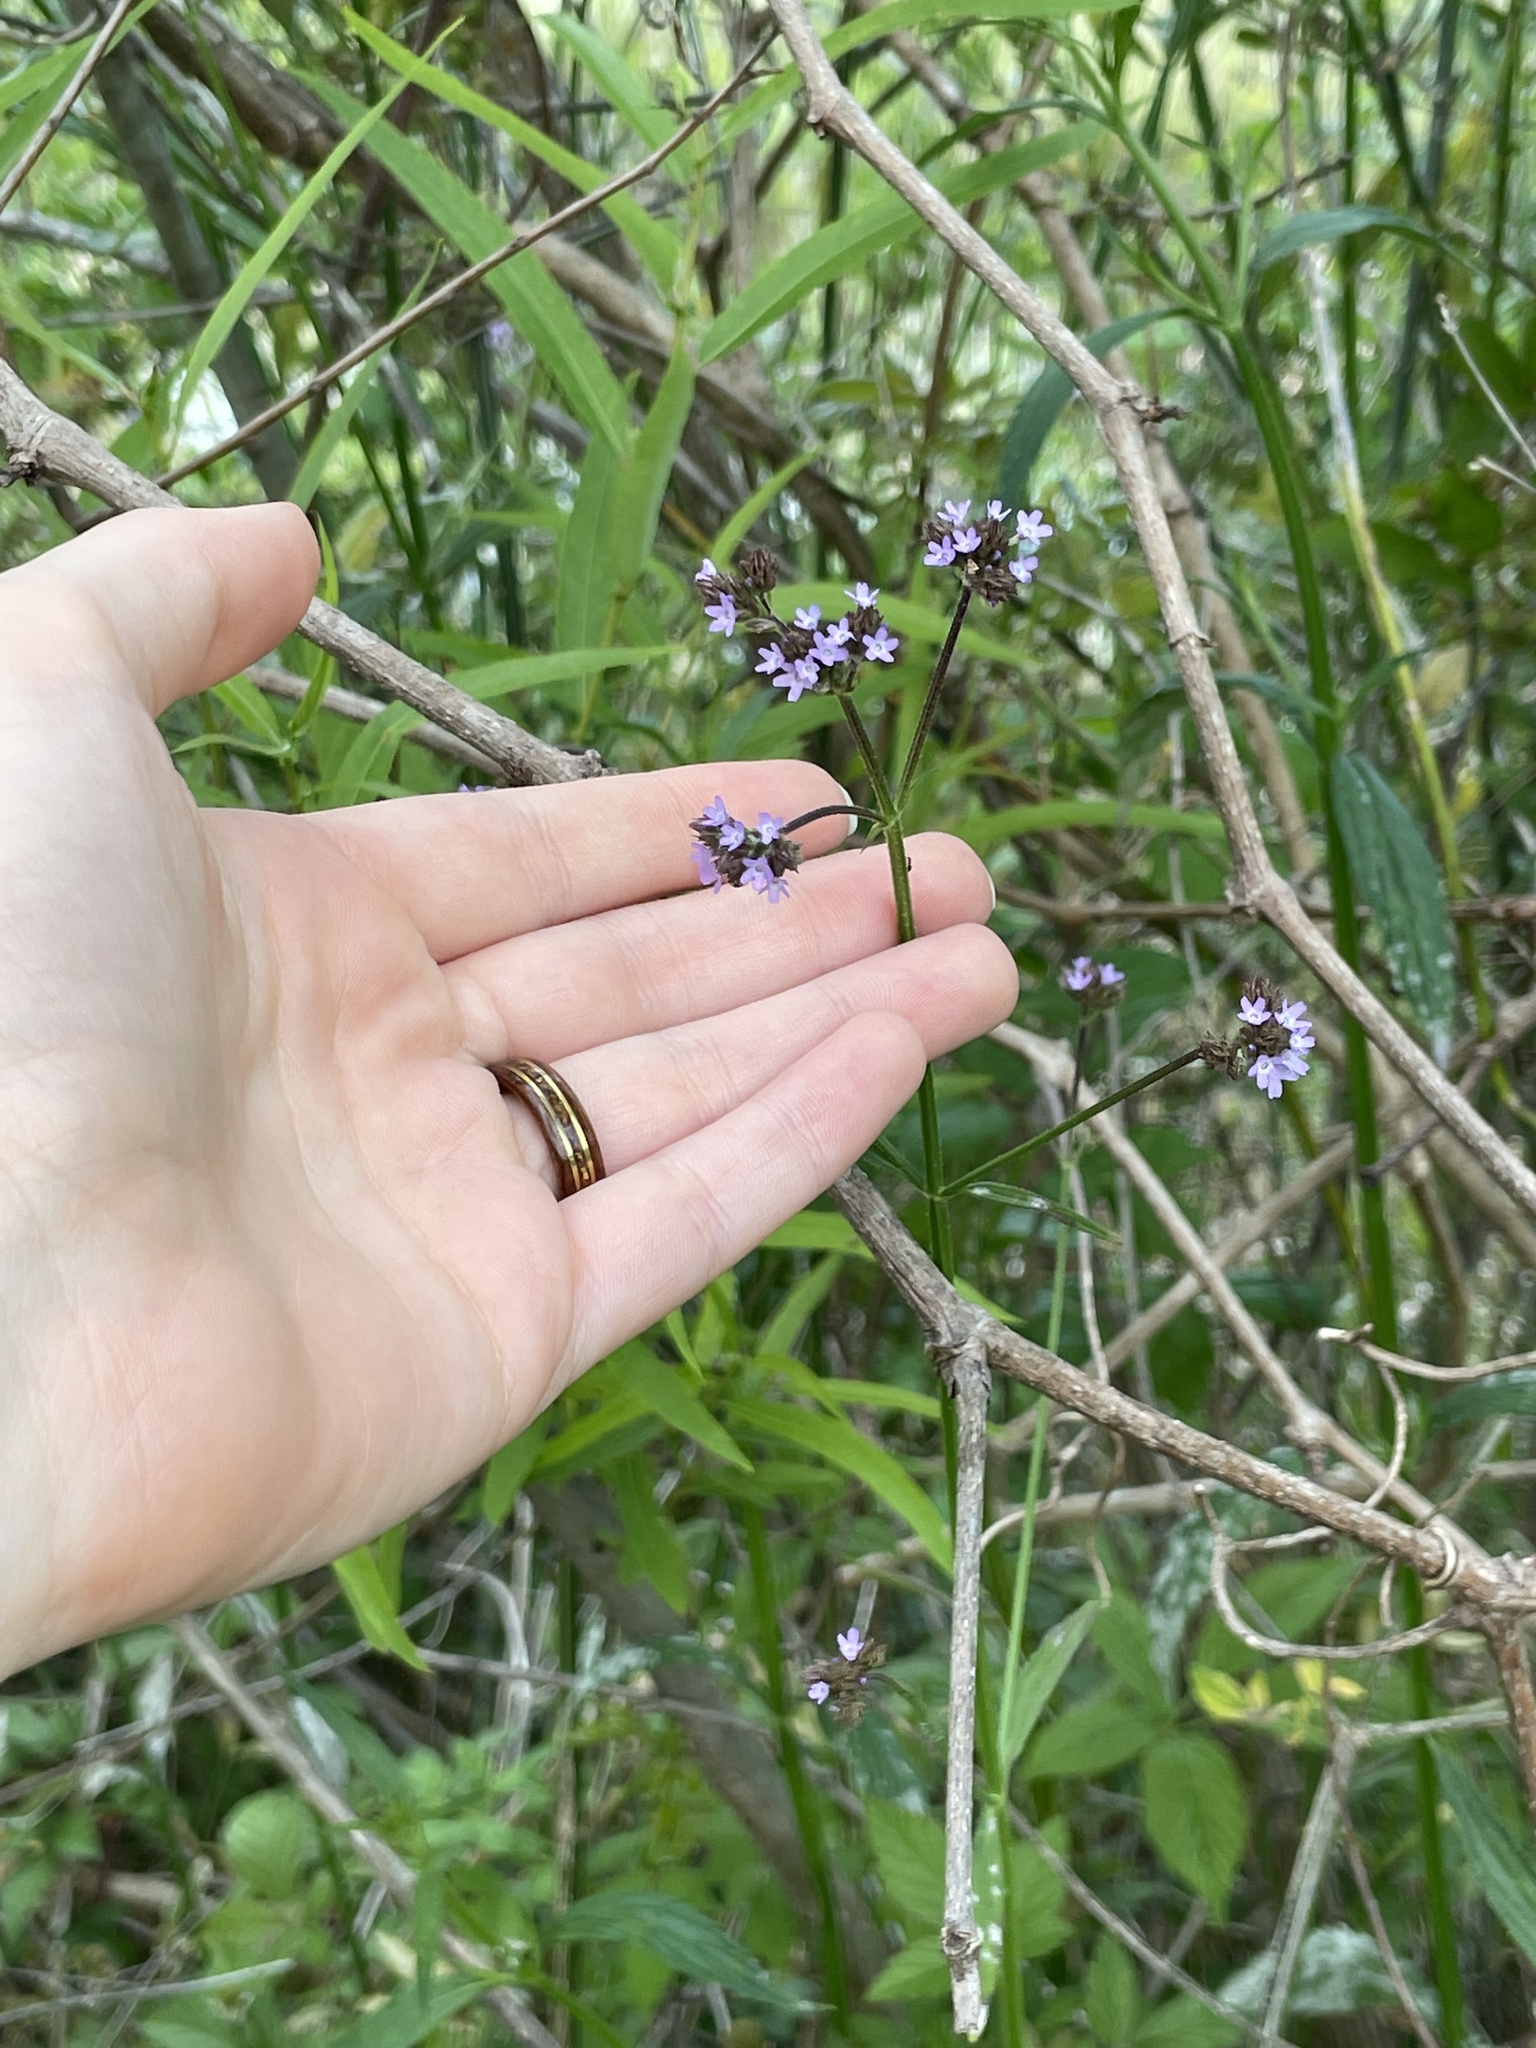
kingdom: Plantae
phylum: Tracheophyta
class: Magnoliopsida
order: Lamiales
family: Verbenaceae
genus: Verbena
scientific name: Verbena brasiliensis
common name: Brazilian vervain
